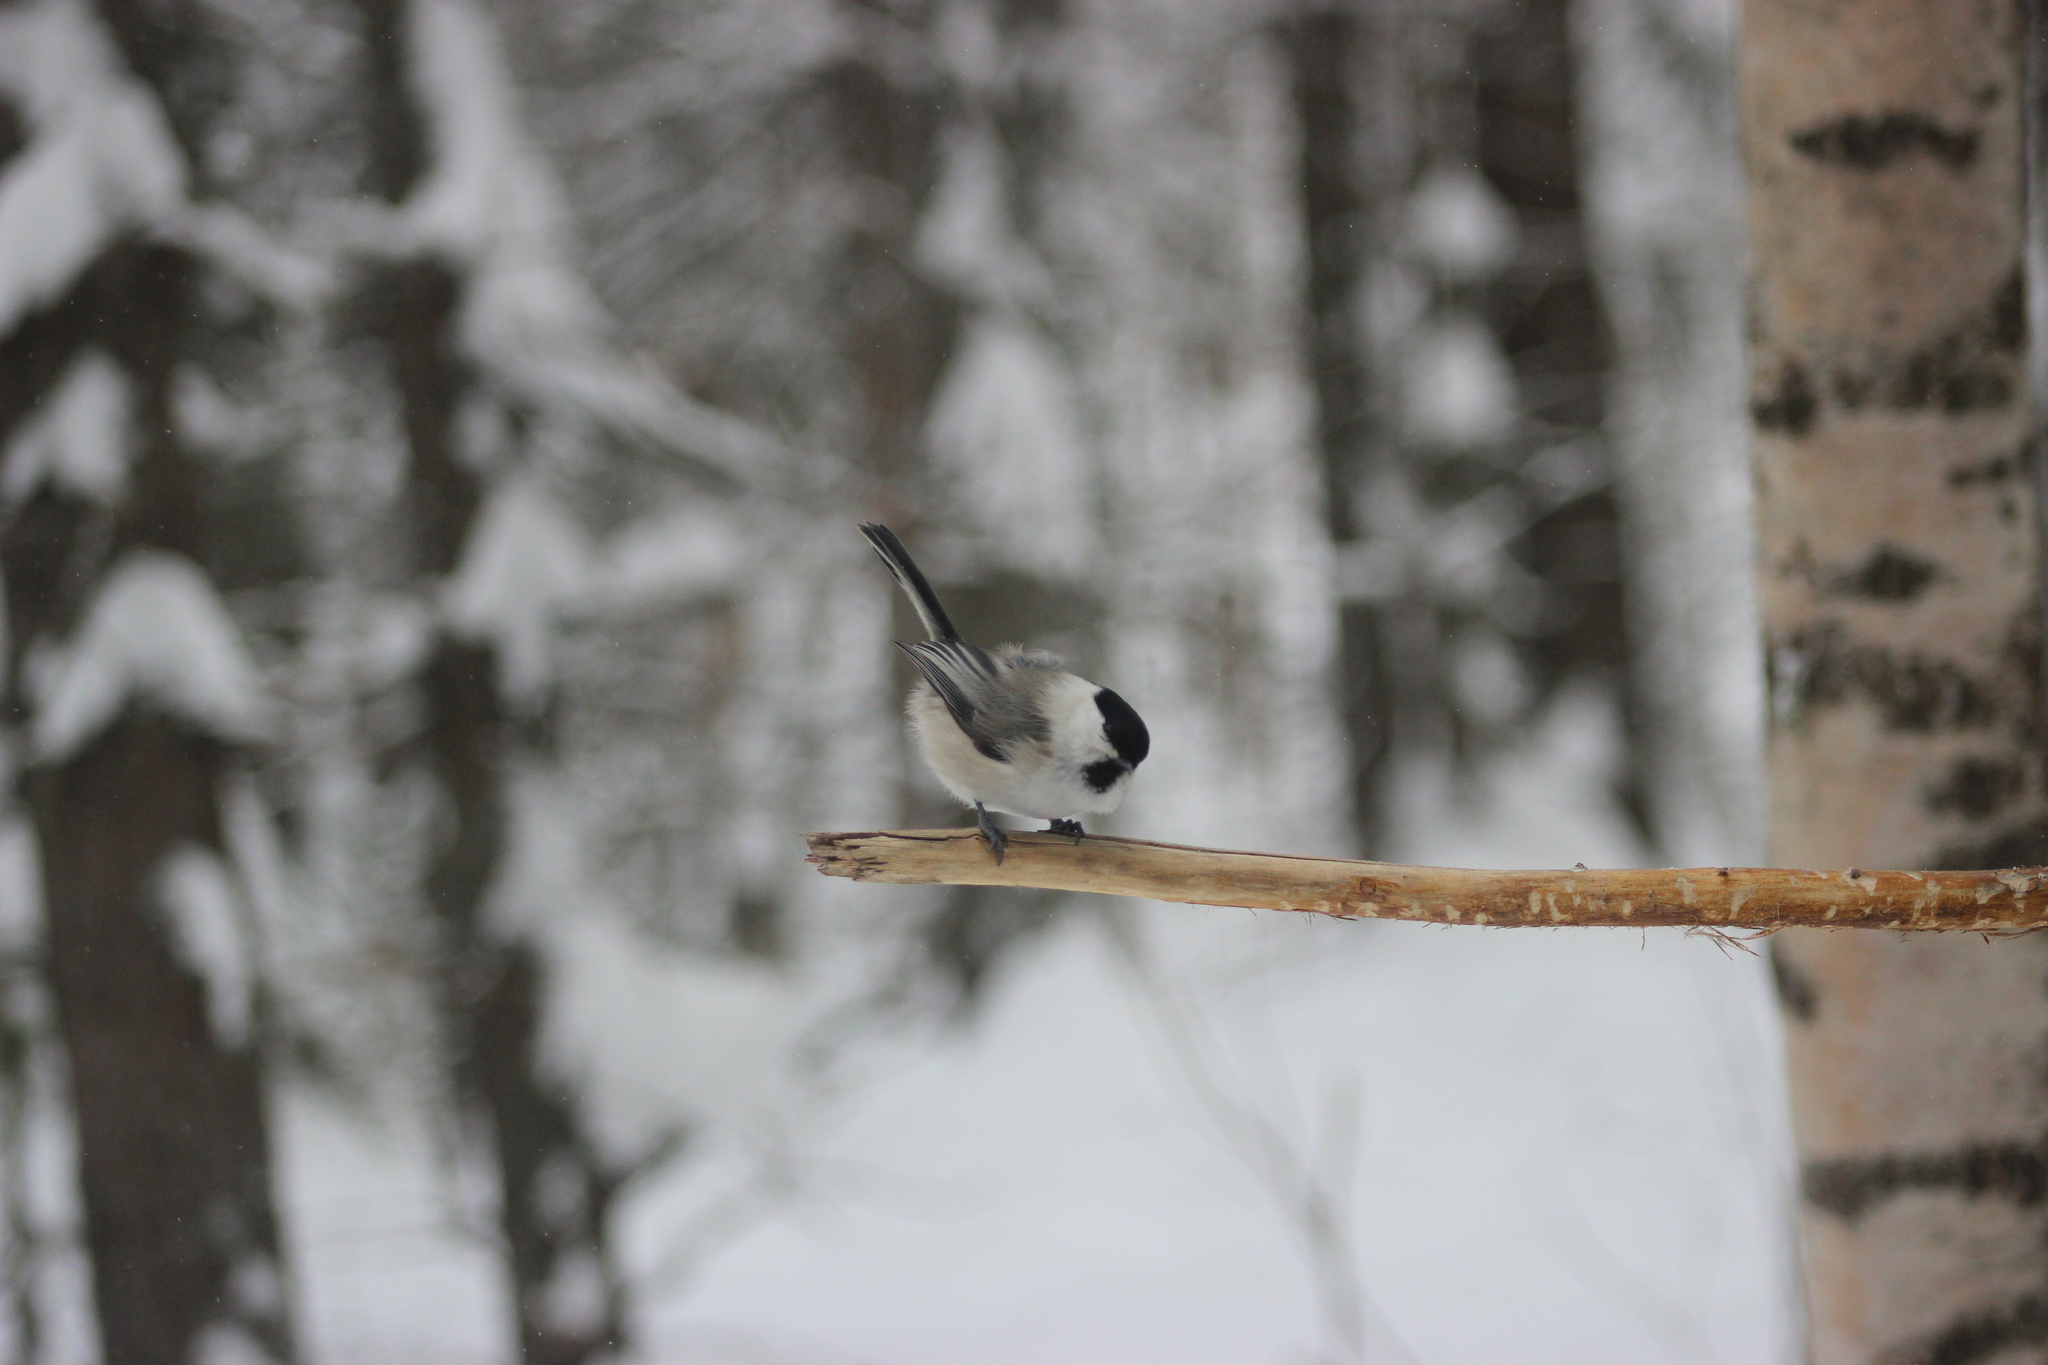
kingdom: Animalia
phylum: Chordata
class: Aves
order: Passeriformes
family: Paridae
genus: Poecile
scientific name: Poecile montanus
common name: Willow tit
